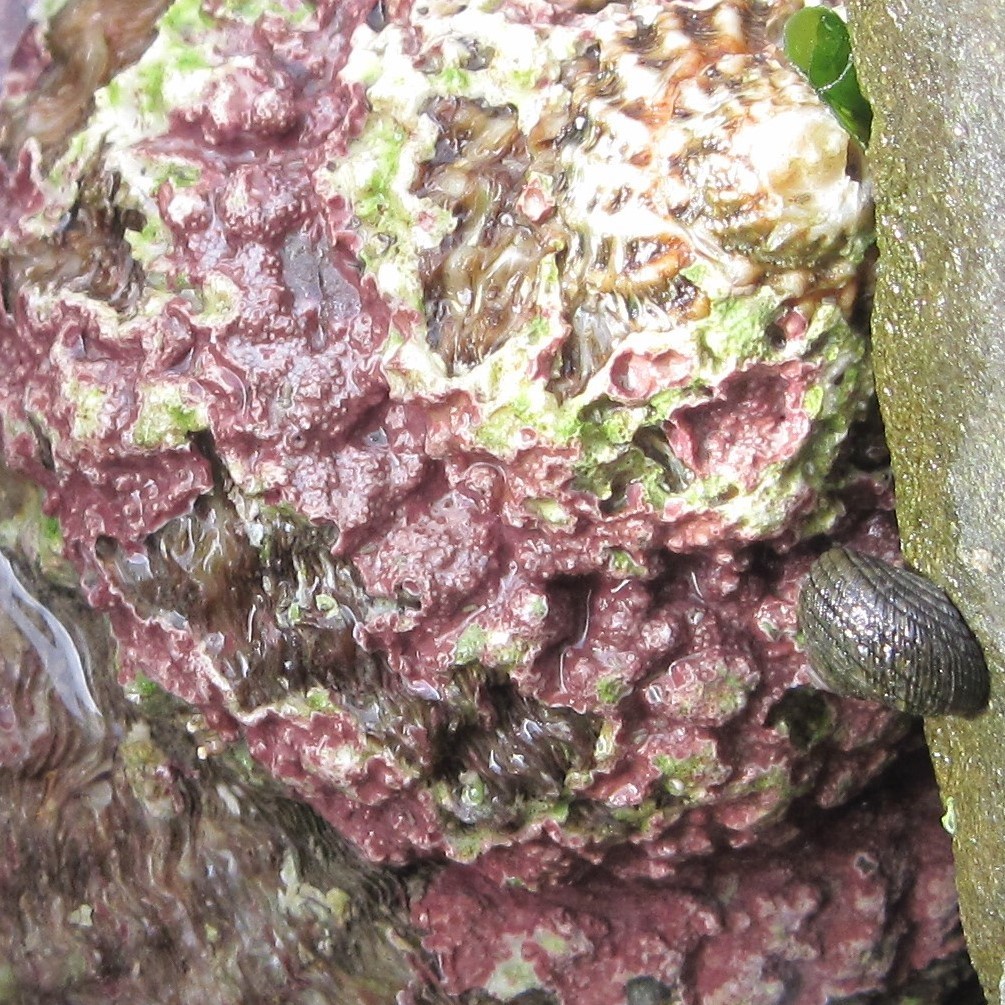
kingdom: Animalia
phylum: Mollusca
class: Gastropoda
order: Trochida
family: Trochidae
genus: Diloma
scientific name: Diloma aethiops
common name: Scorched monodont
